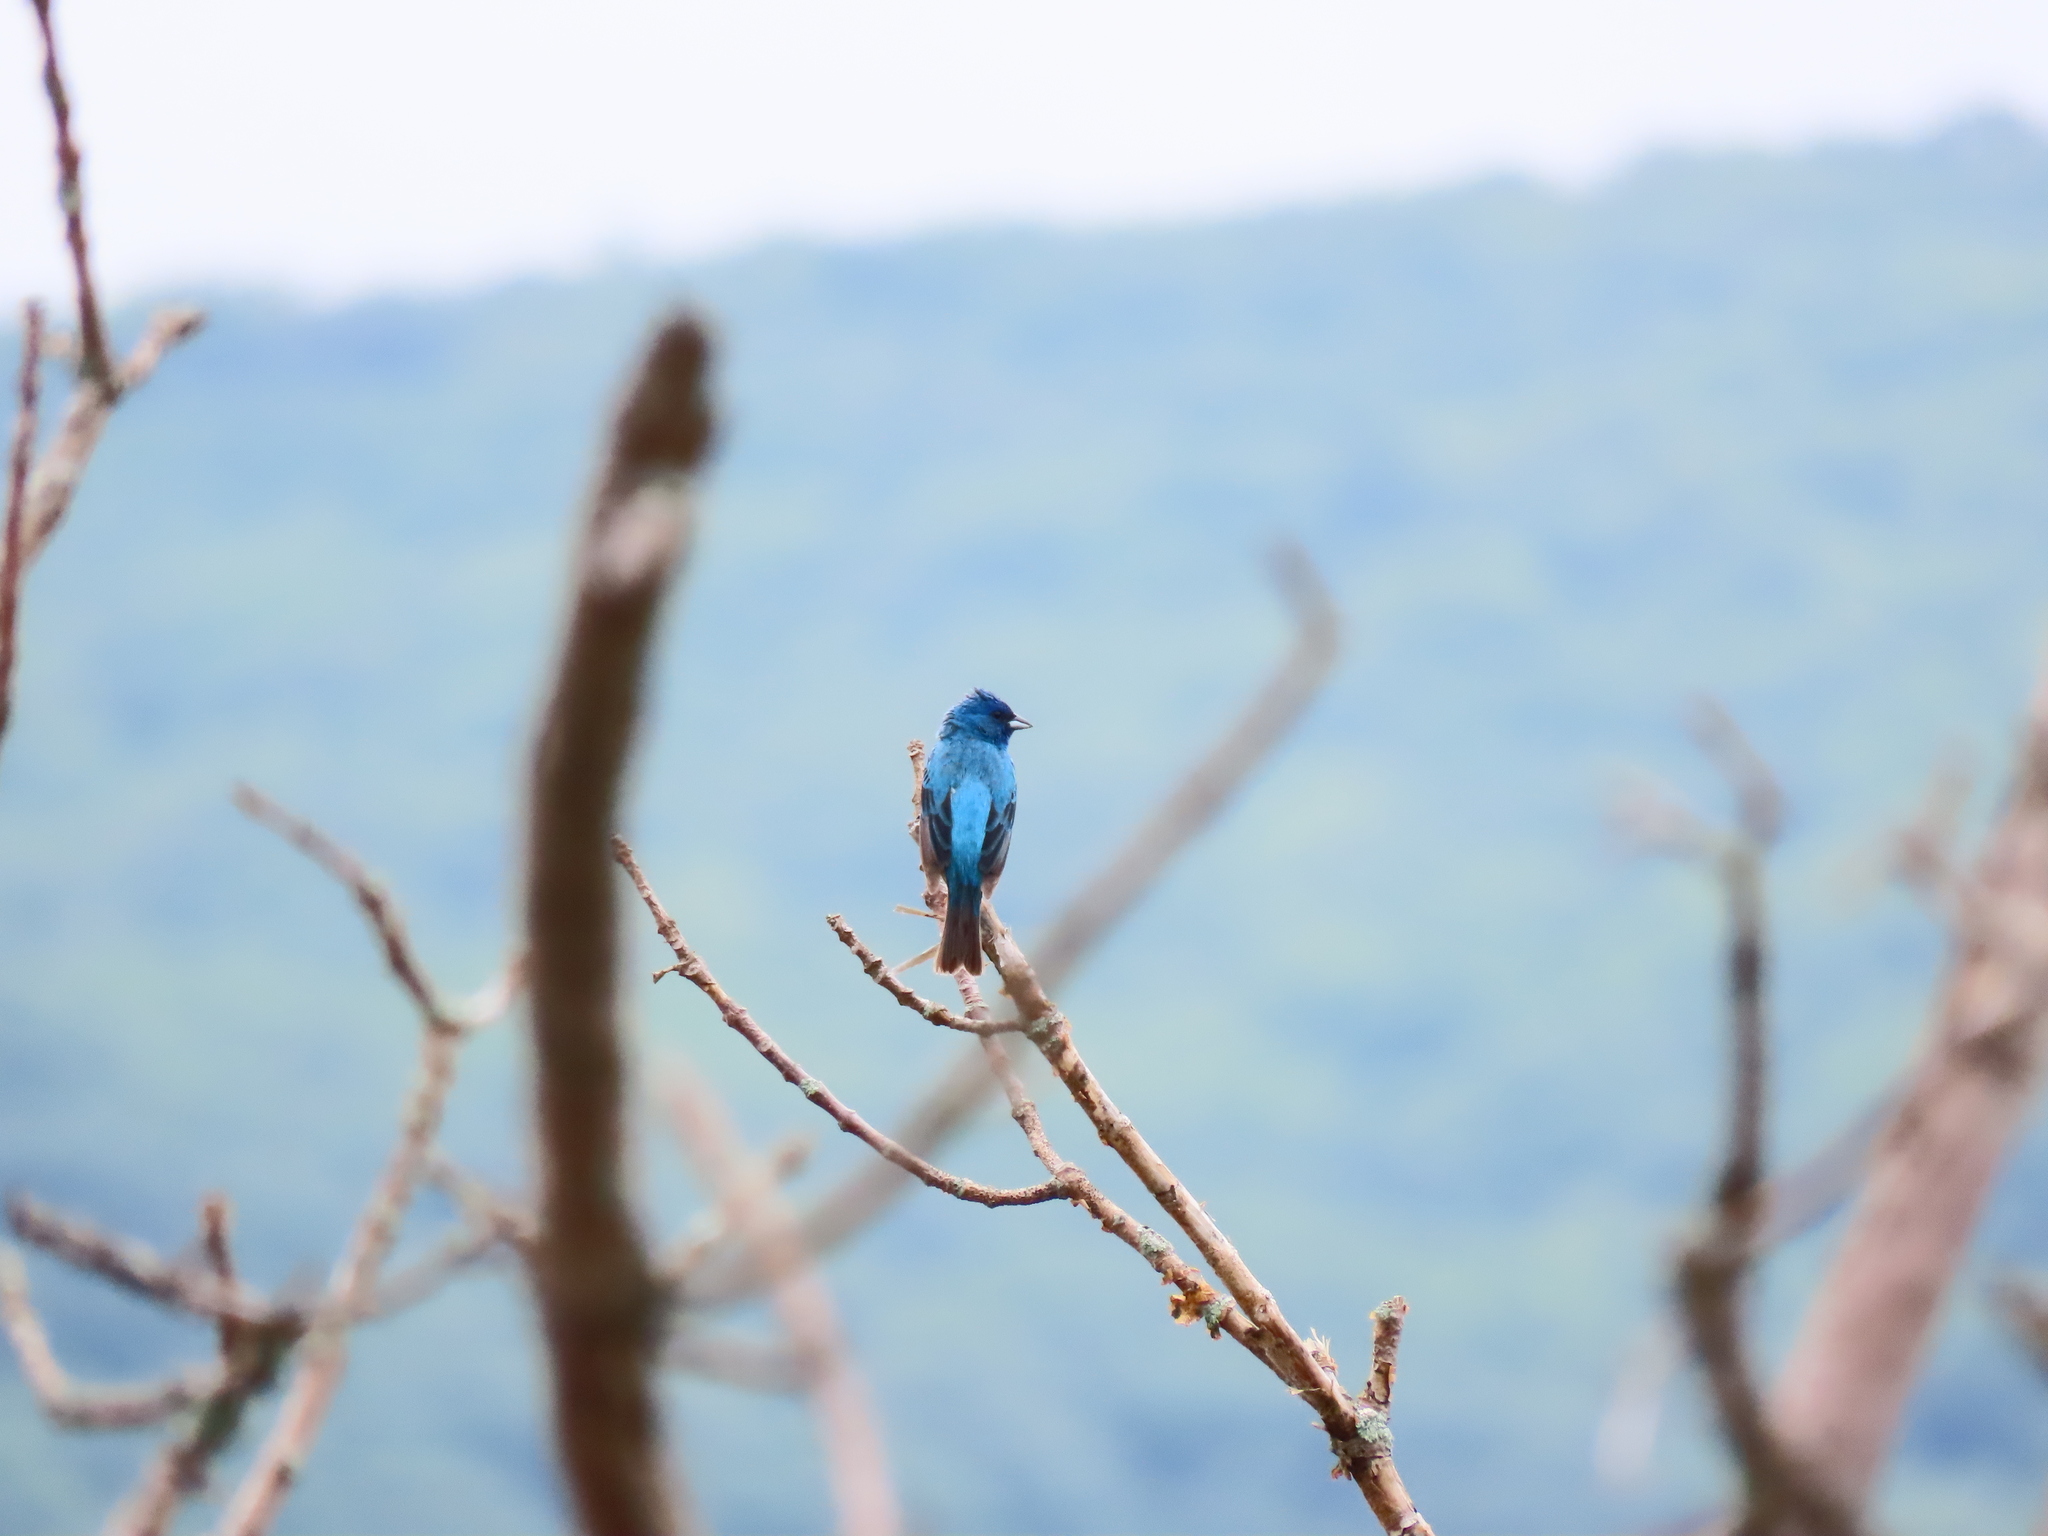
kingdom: Animalia
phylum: Chordata
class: Aves
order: Passeriformes
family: Cardinalidae
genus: Passerina
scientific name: Passerina cyanea
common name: Indigo bunting
